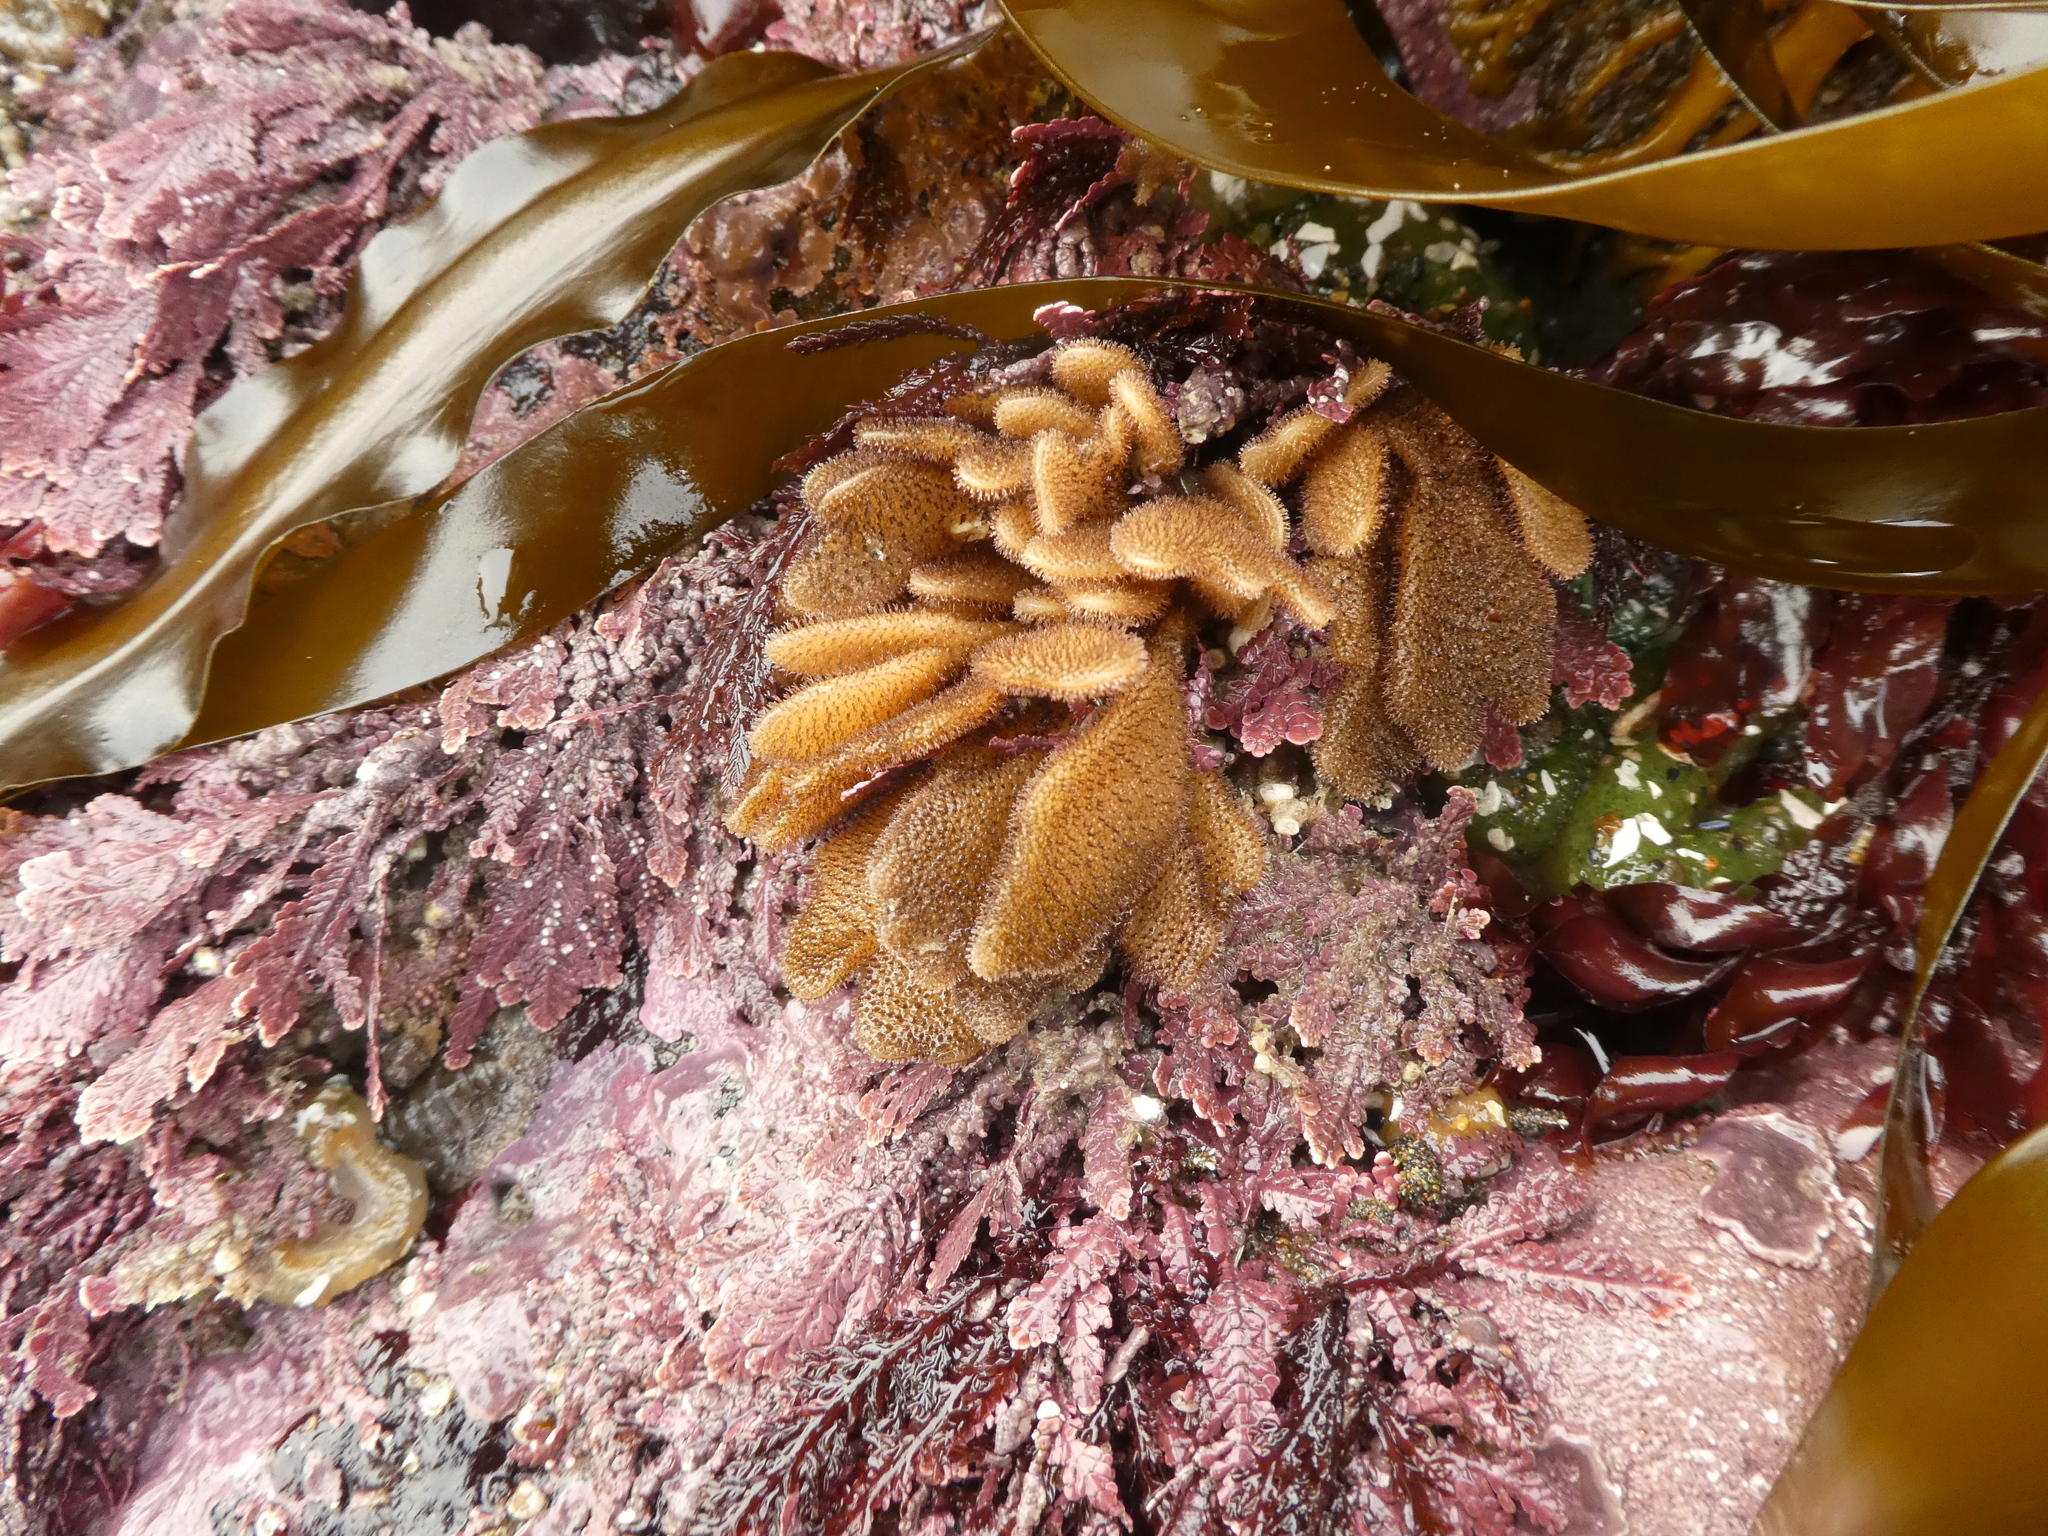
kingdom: Animalia
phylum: Bryozoa
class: Gymnolaemata
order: Ctenostomatida
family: Flustrellidridae
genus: Flustrellidra
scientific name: Flustrellidra corniculata
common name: Spiny leather bryozoan
